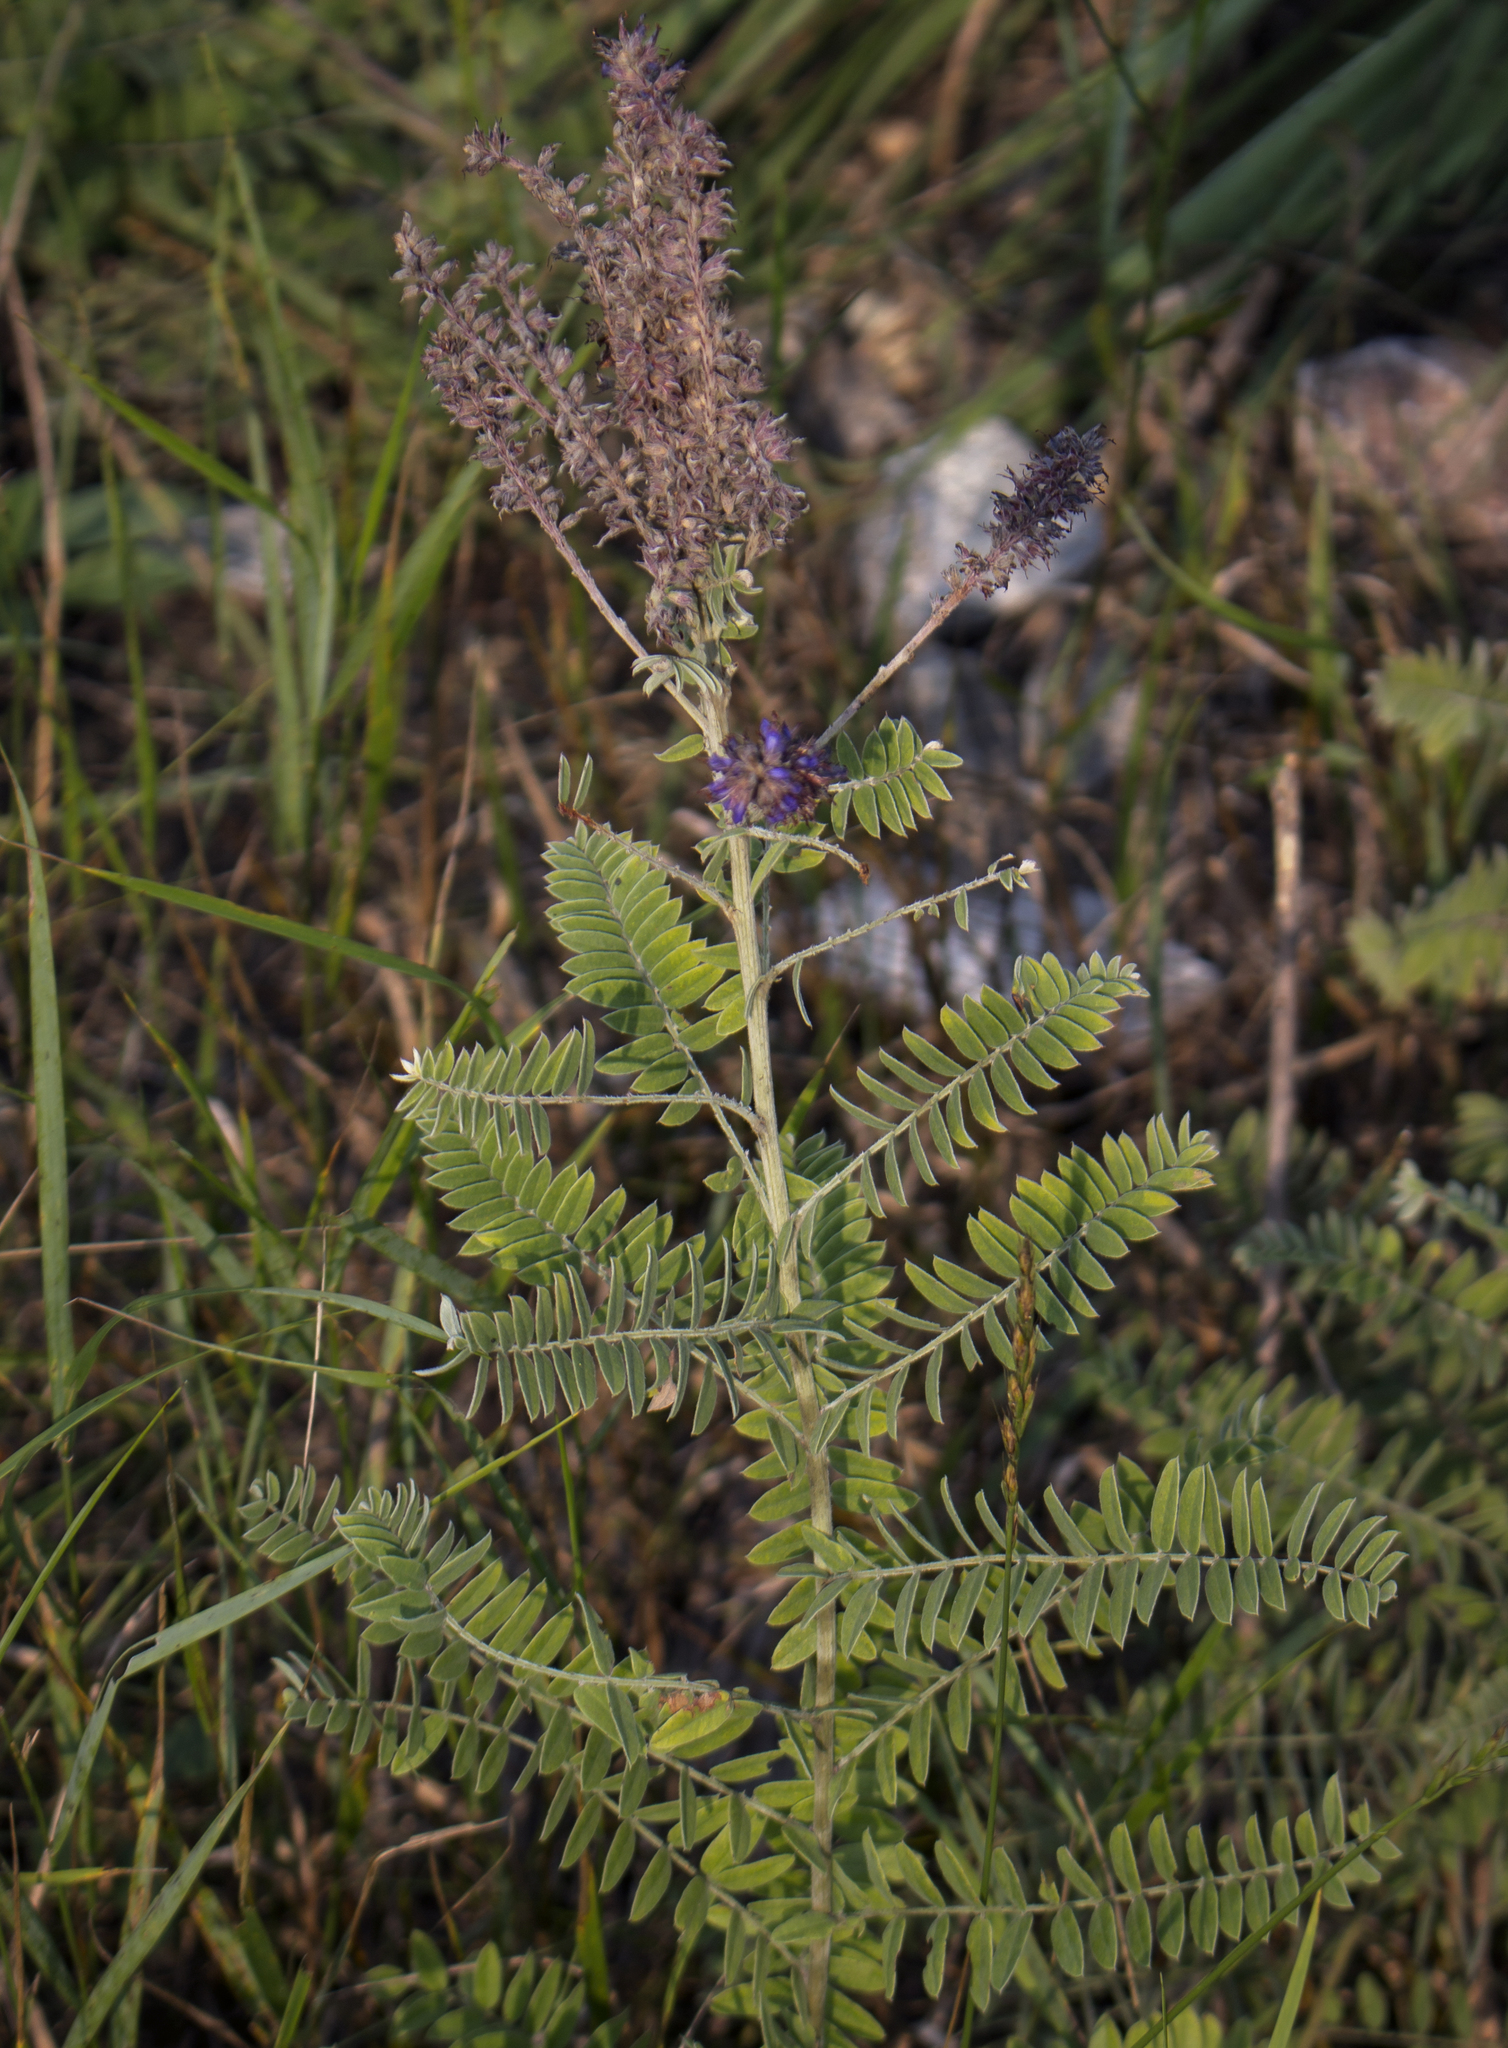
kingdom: Plantae
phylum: Tracheophyta
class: Magnoliopsida
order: Fabales
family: Fabaceae
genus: Amorpha
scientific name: Amorpha canescens
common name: Leadplant
